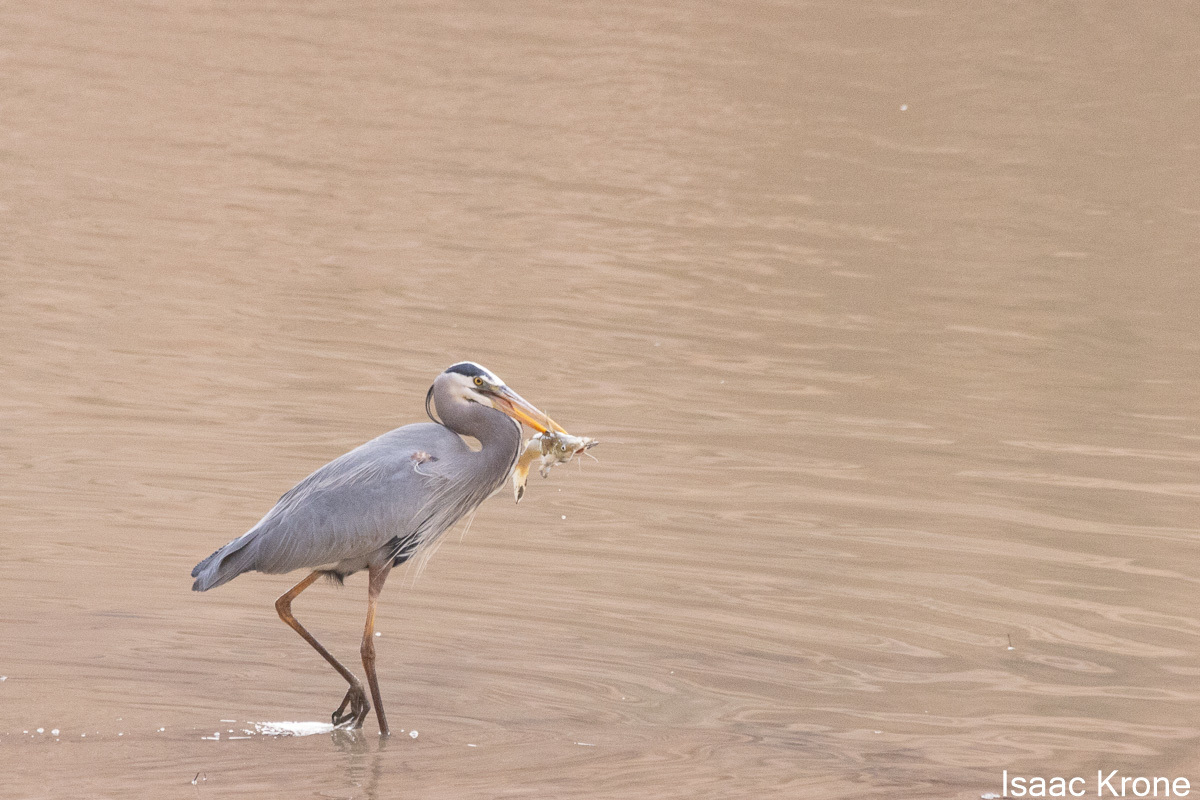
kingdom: Animalia
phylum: Chordata
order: Siluriformes
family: Ictaluridae
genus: Ictalurus
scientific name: Ictalurus punctatus
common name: Channel catfish
